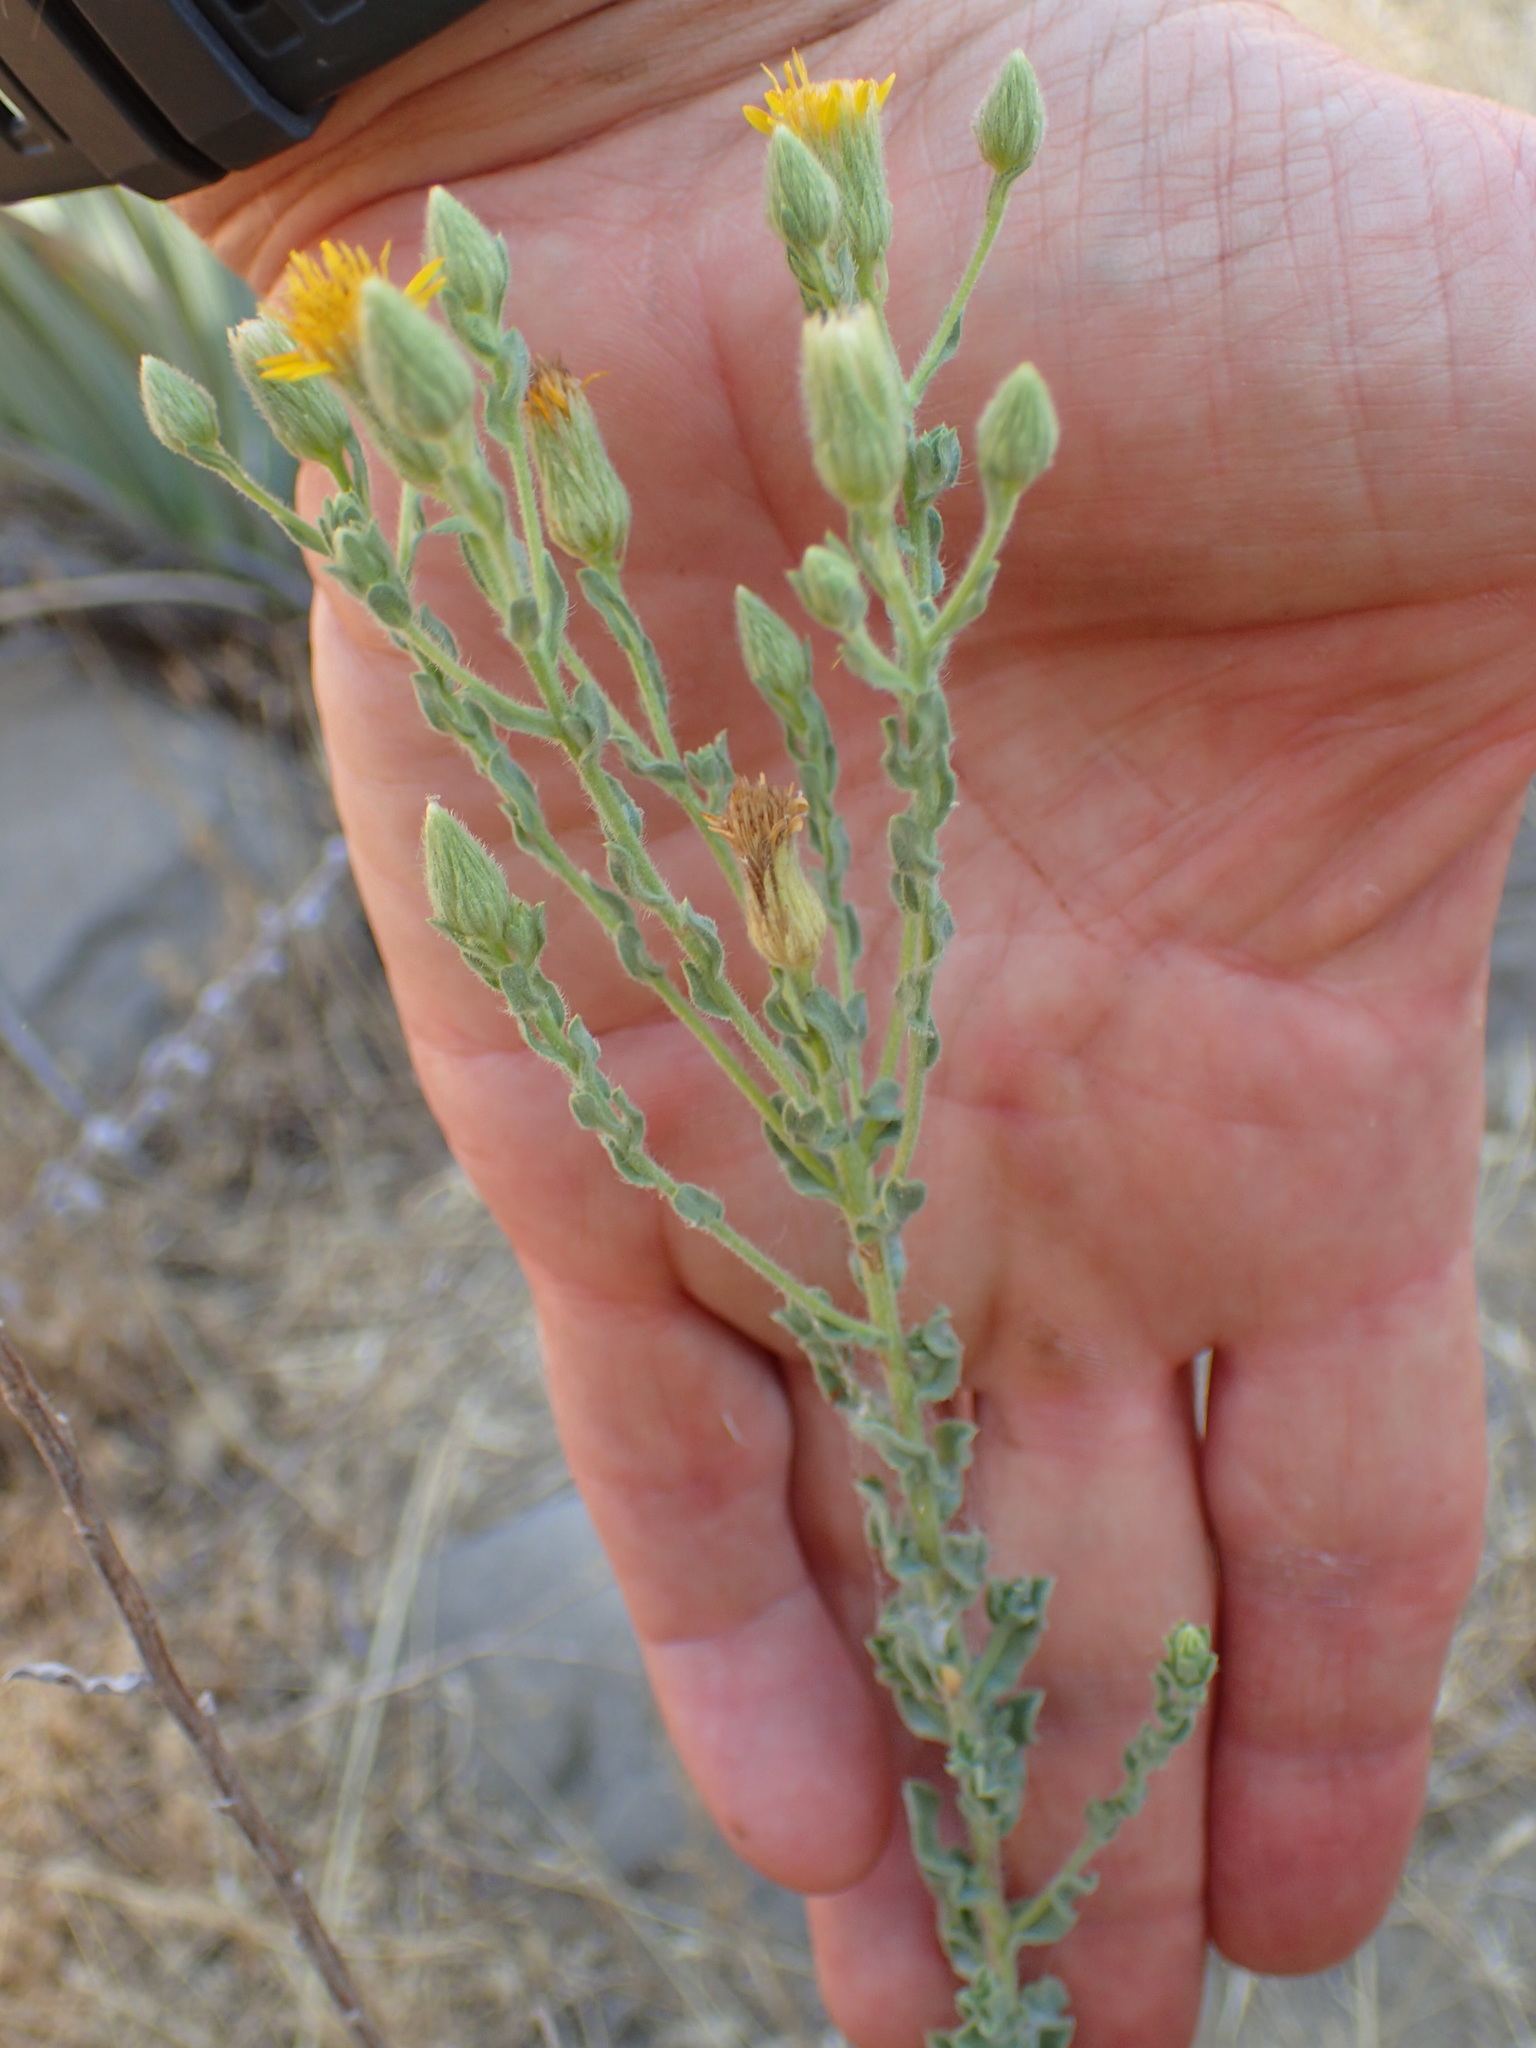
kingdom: Plantae
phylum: Tracheophyta
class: Magnoliopsida
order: Asterales
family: Asteraceae
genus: Heterotheca
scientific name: Heterotheca sessiliflora
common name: Sessile-flower golden-aster
